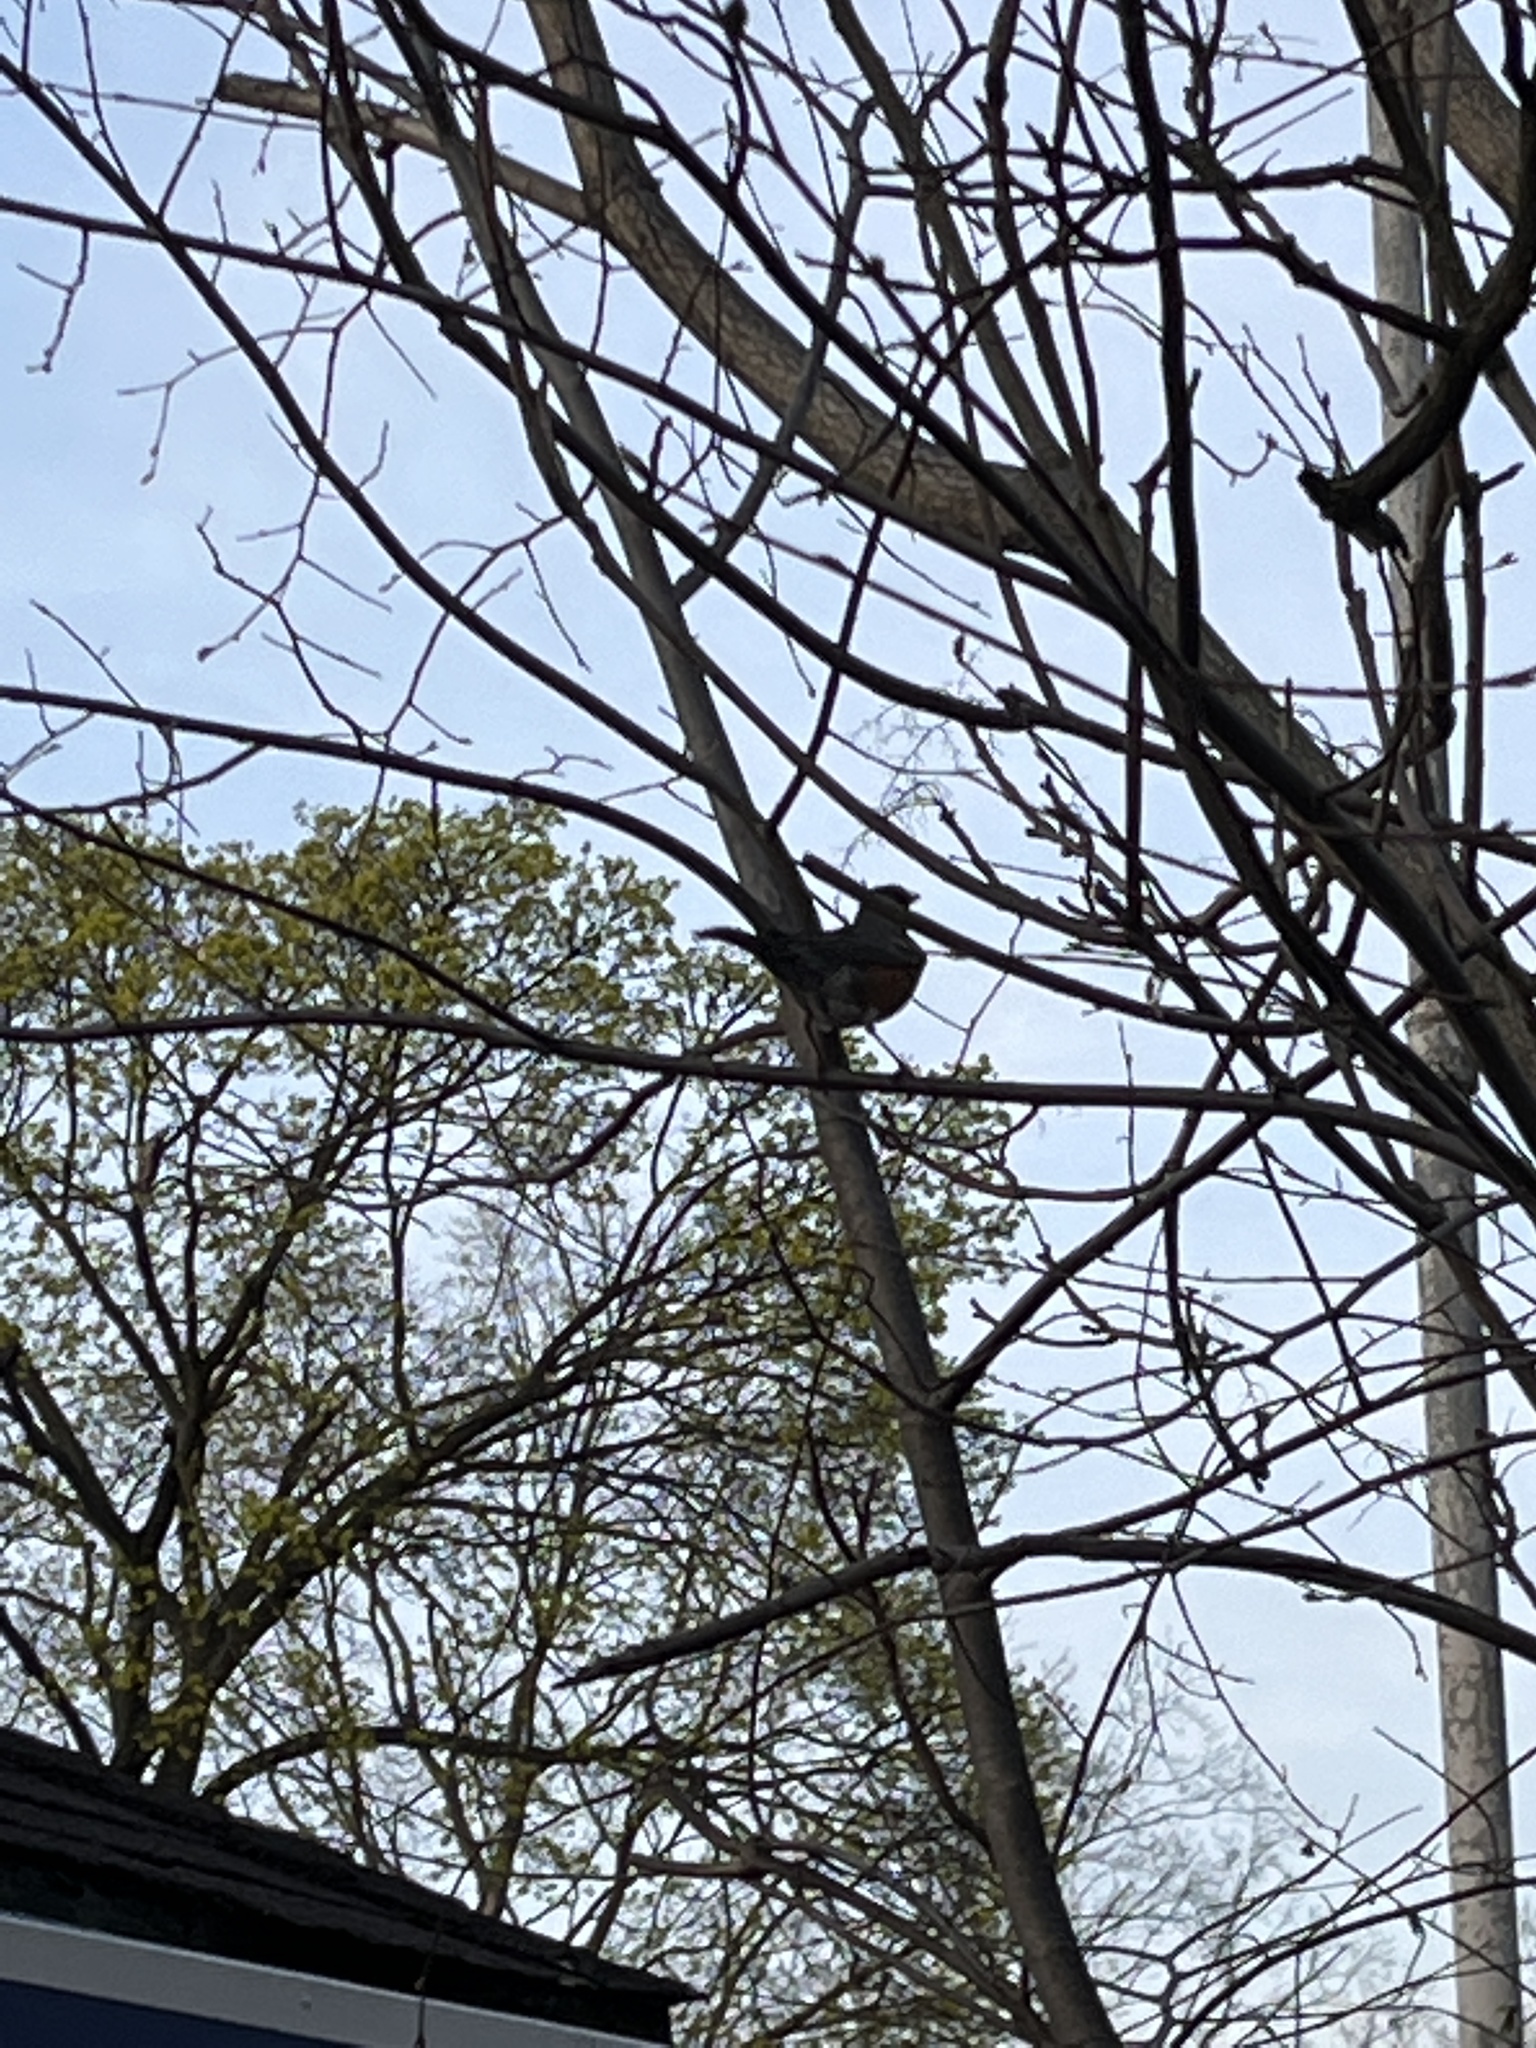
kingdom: Animalia
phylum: Chordata
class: Aves
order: Passeriformes
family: Turdidae
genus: Turdus
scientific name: Turdus migratorius
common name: American robin
